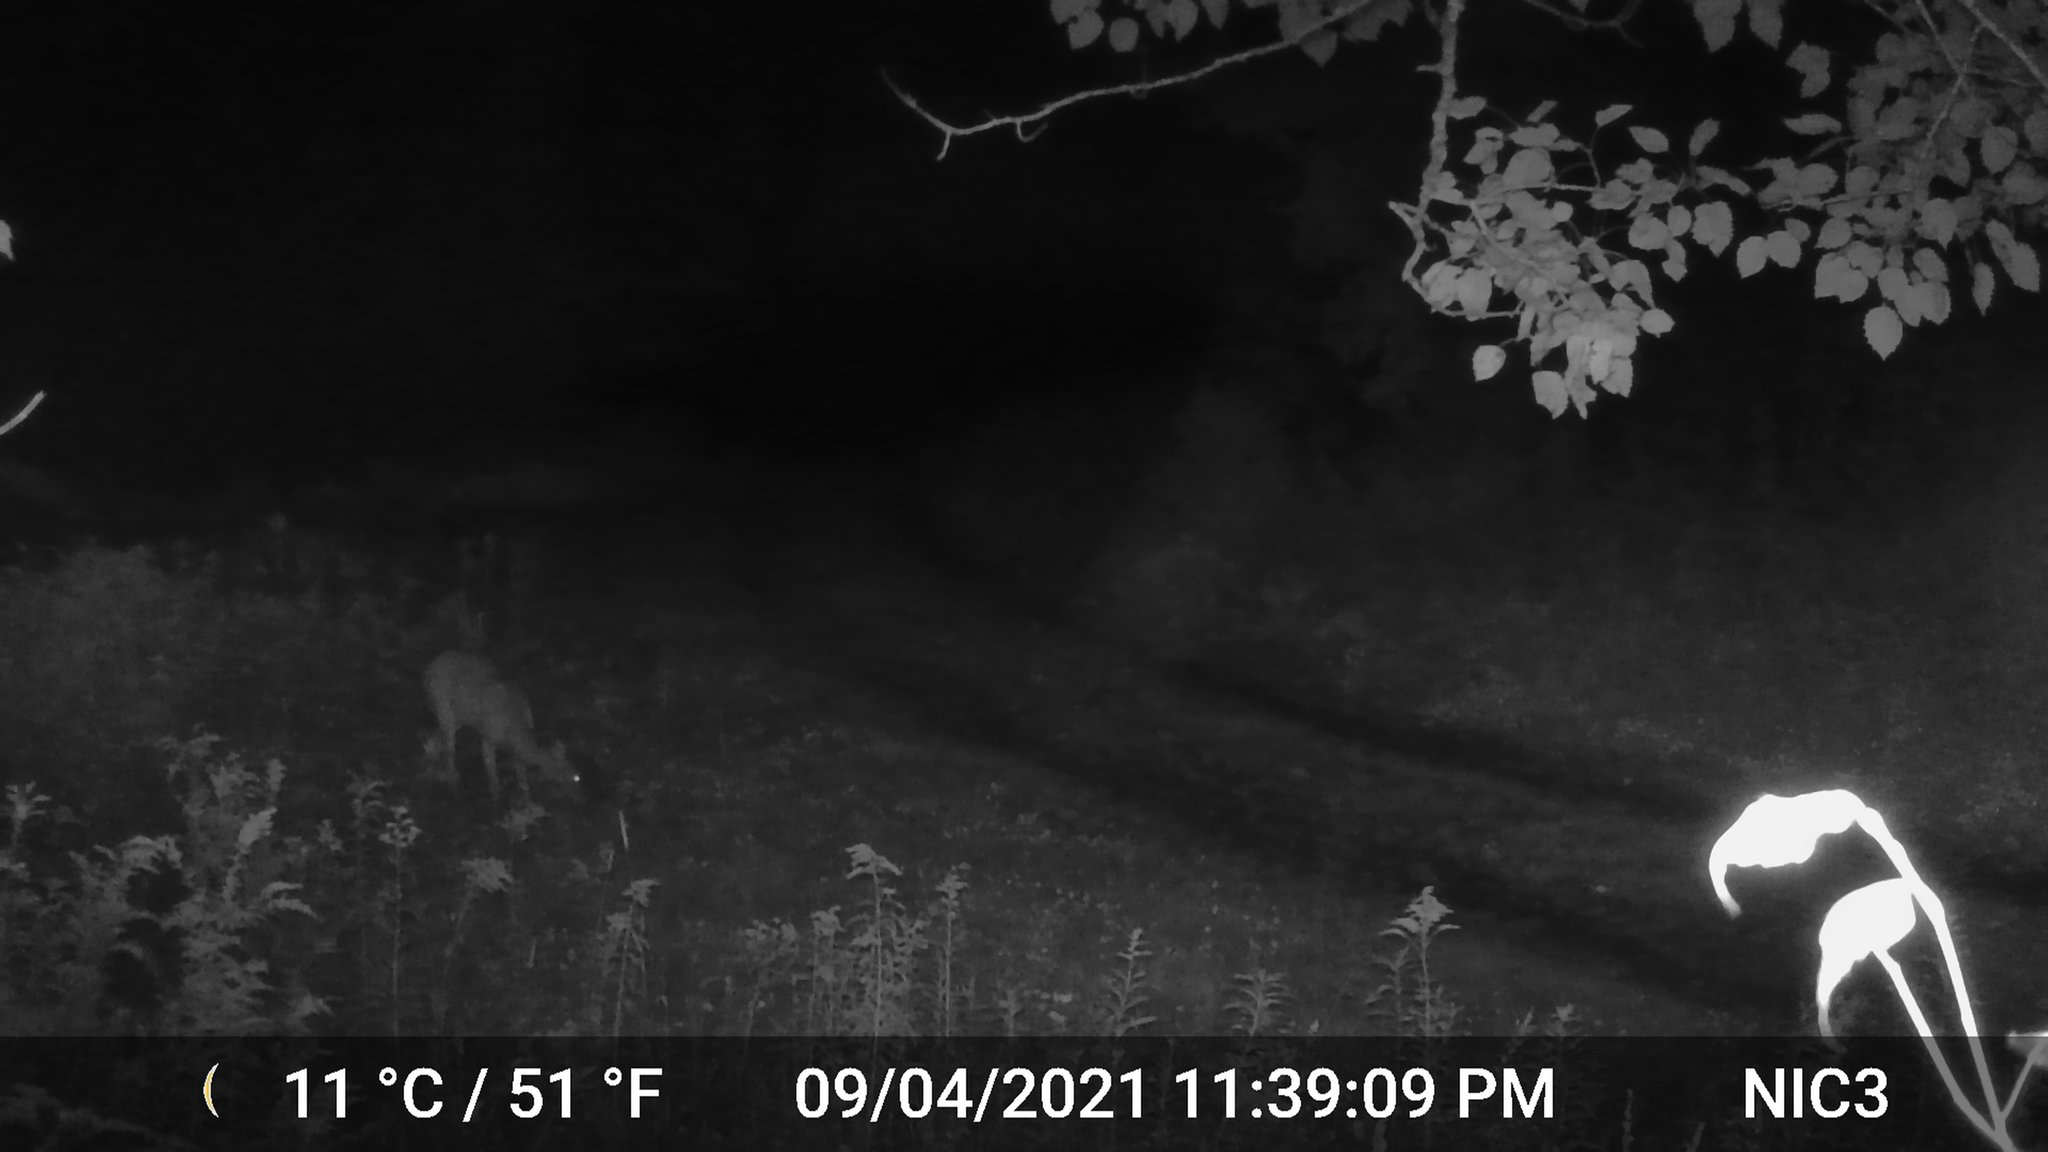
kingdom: Animalia
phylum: Chordata
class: Mammalia
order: Artiodactyla
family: Cervidae
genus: Odocoileus
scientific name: Odocoileus virginianus
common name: White-tailed deer
